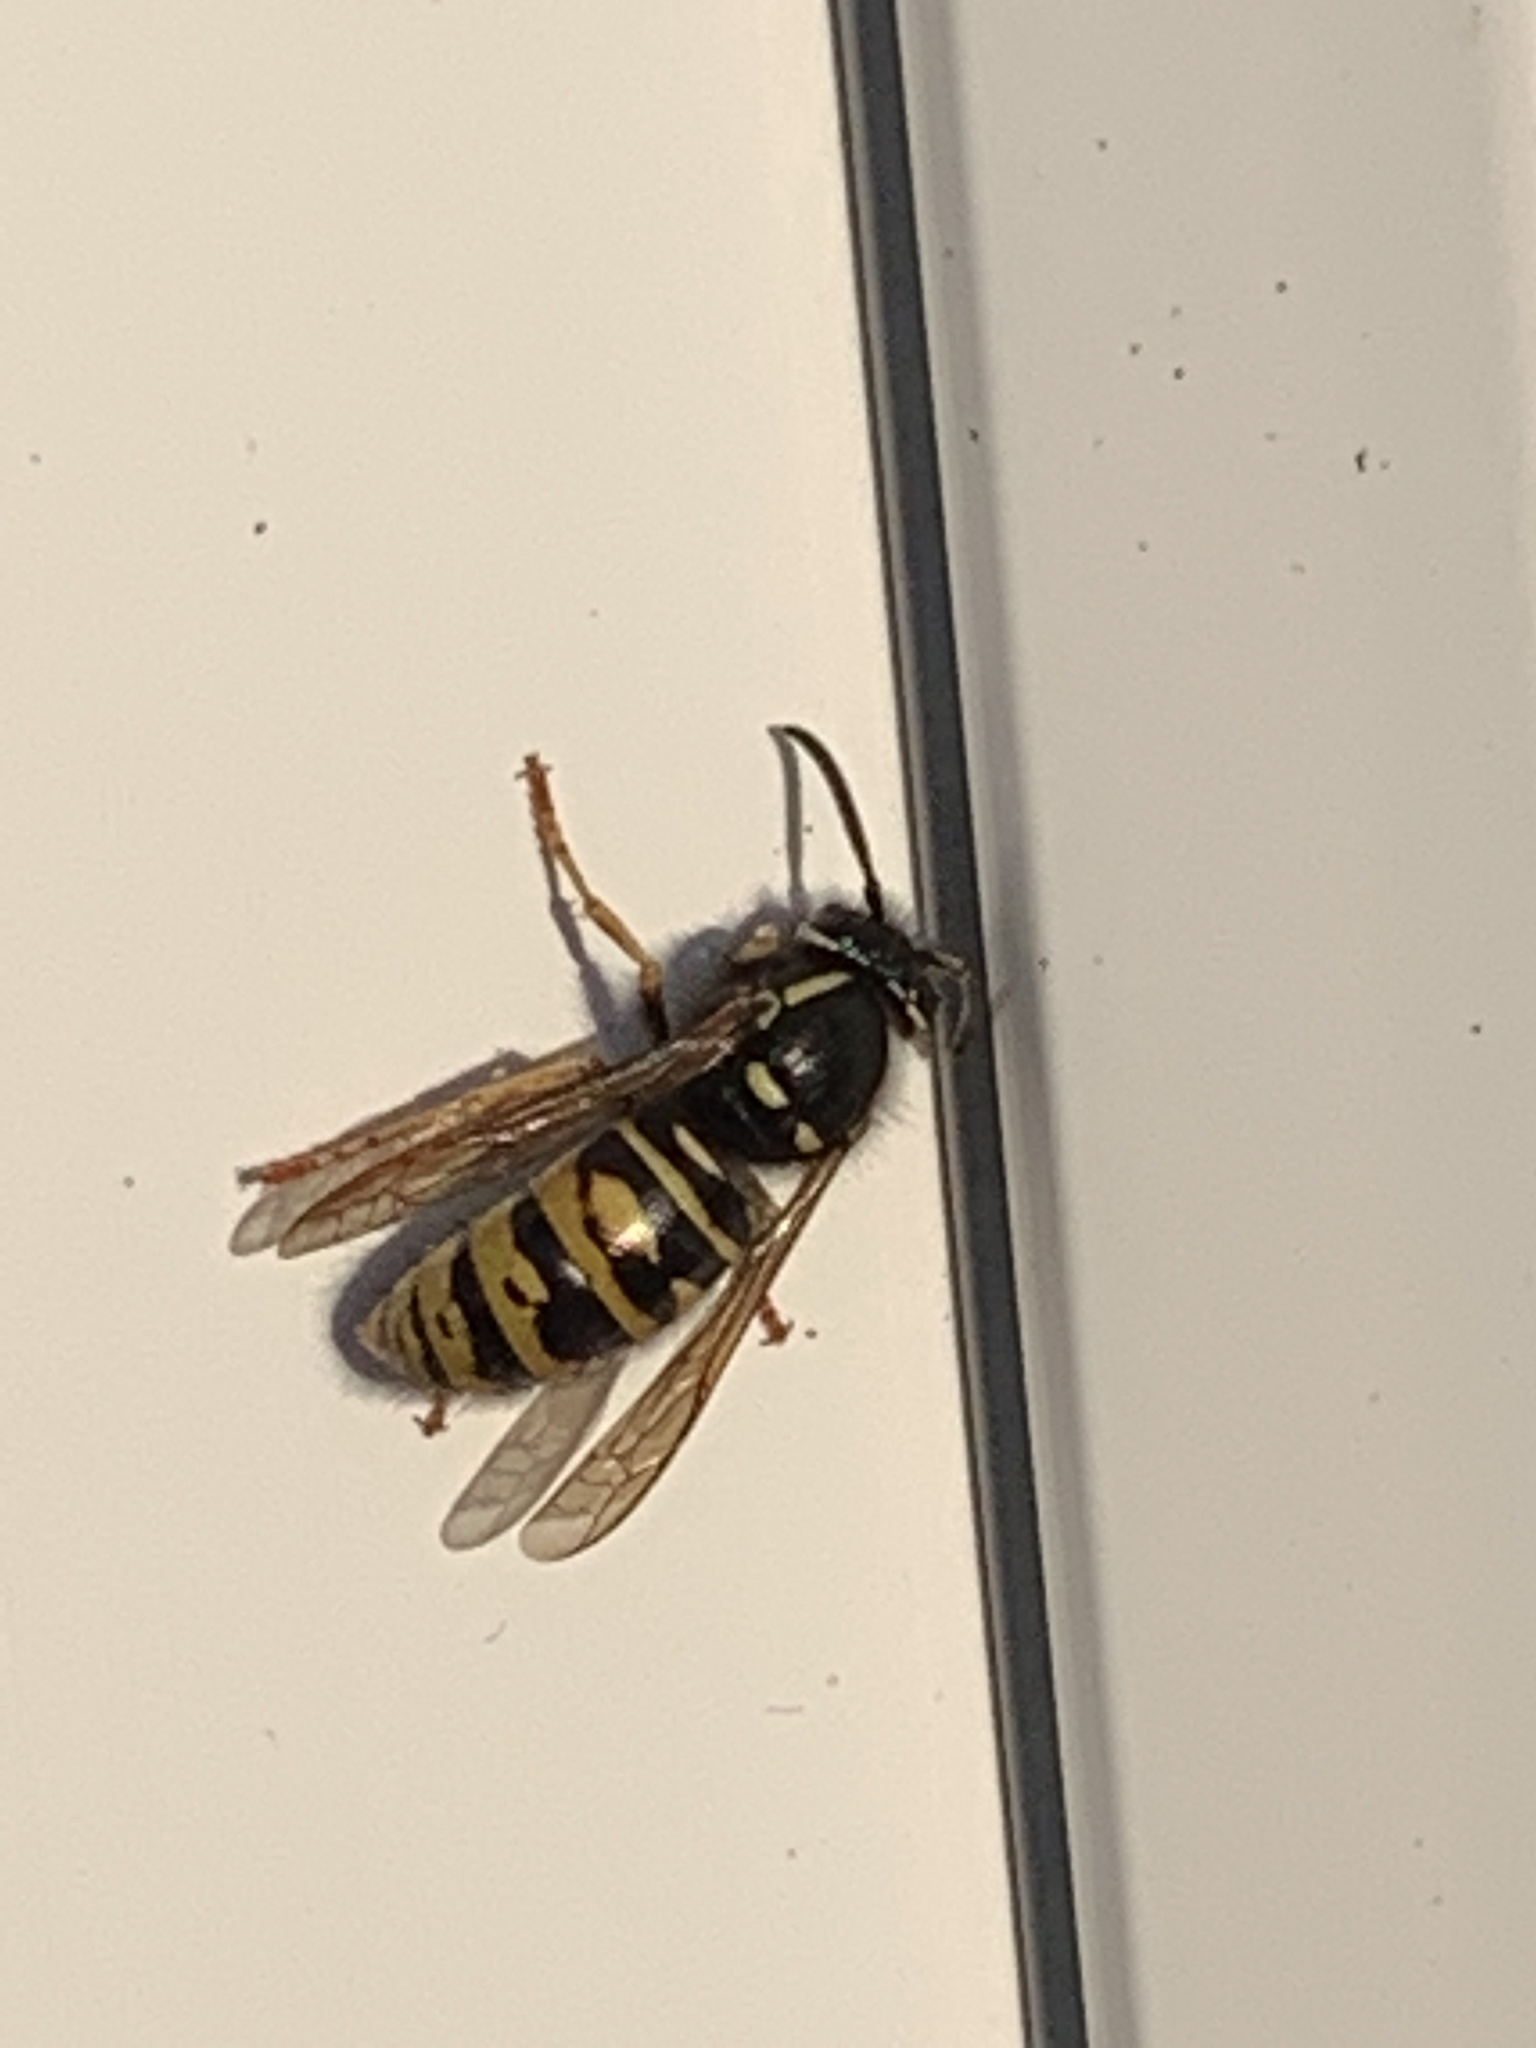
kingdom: Animalia
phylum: Arthropoda
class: Insecta
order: Hymenoptera
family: Vespidae
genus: Vespula
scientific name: Vespula rufa
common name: Red wasp
